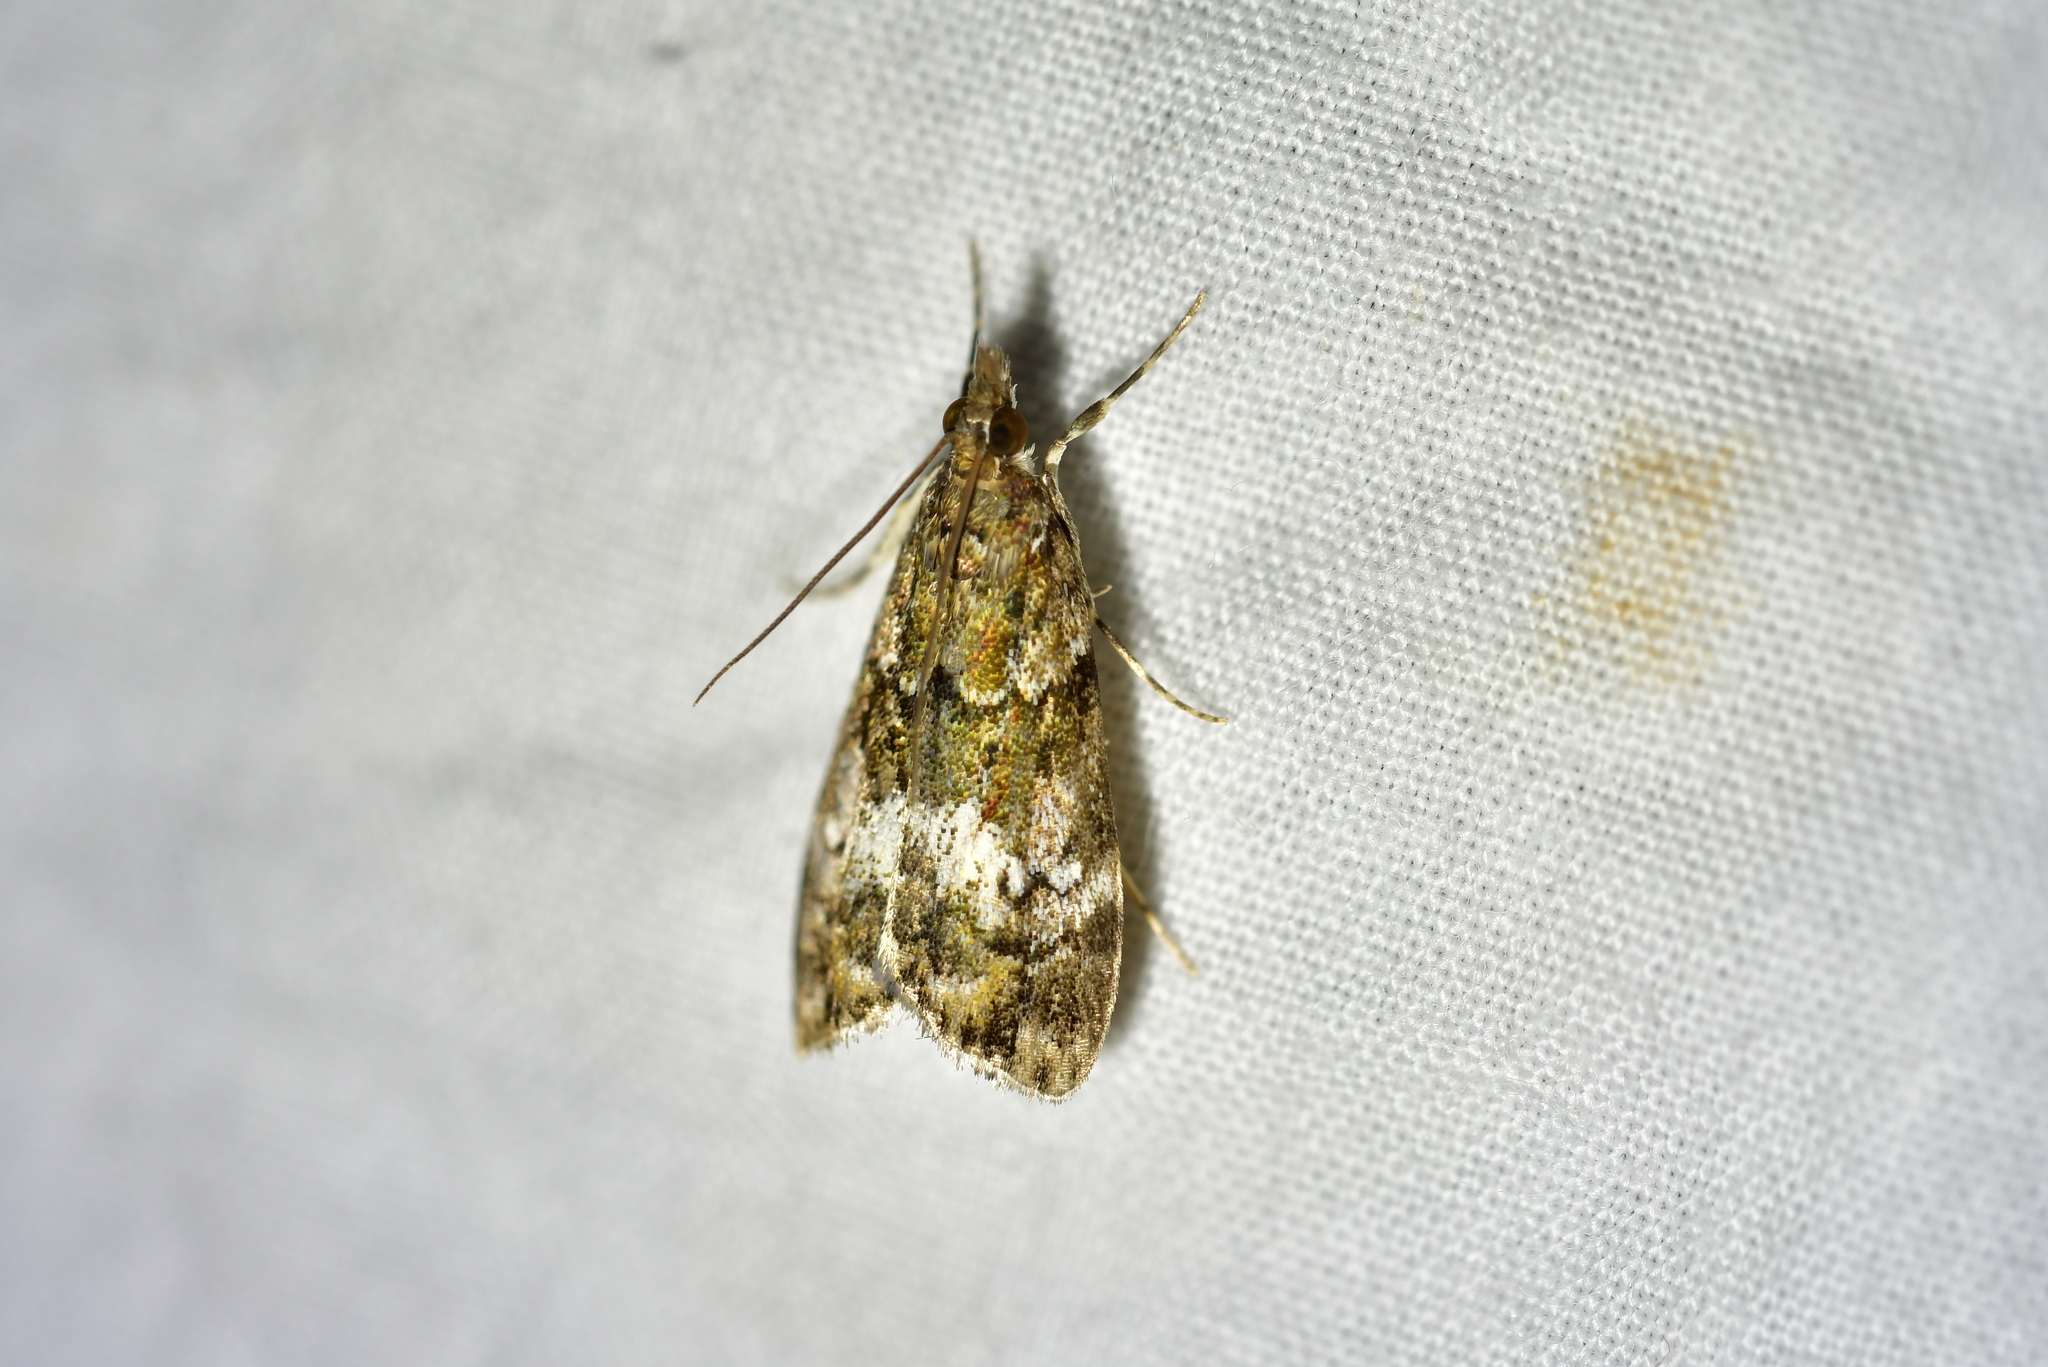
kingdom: Animalia
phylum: Arthropoda
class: Insecta
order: Lepidoptera
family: Crambidae
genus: Eudonia
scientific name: Eudonia minualis
